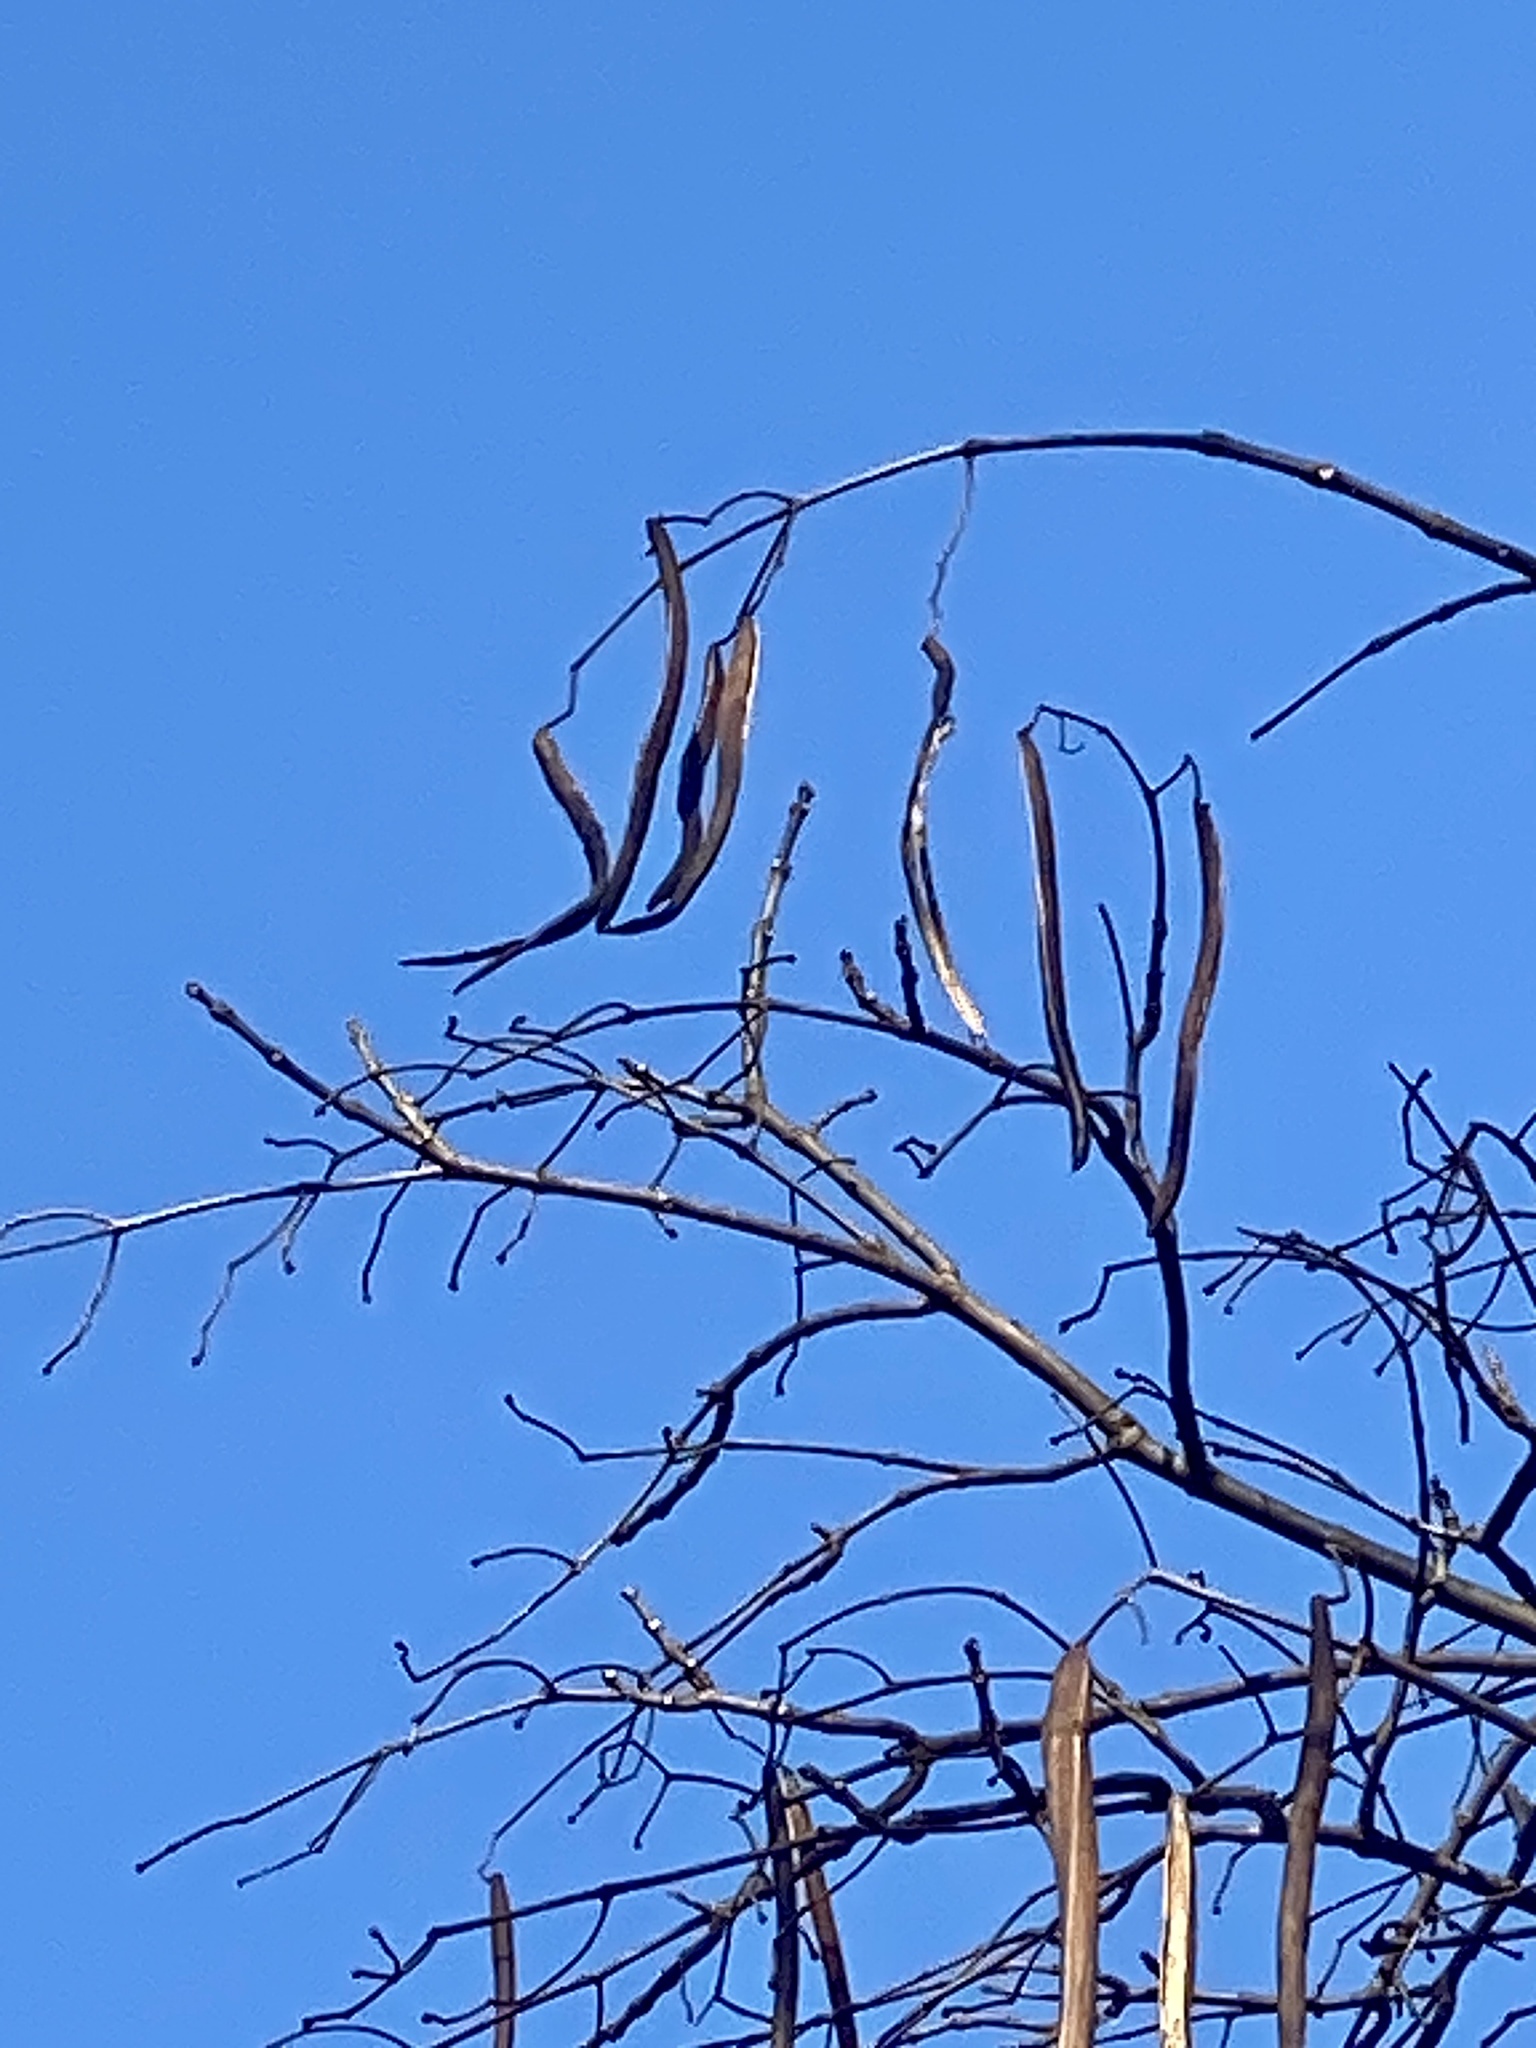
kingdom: Plantae
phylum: Tracheophyta
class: Magnoliopsida
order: Lamiales
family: Bignoniaceae
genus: Catalpa
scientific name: Catalpa
